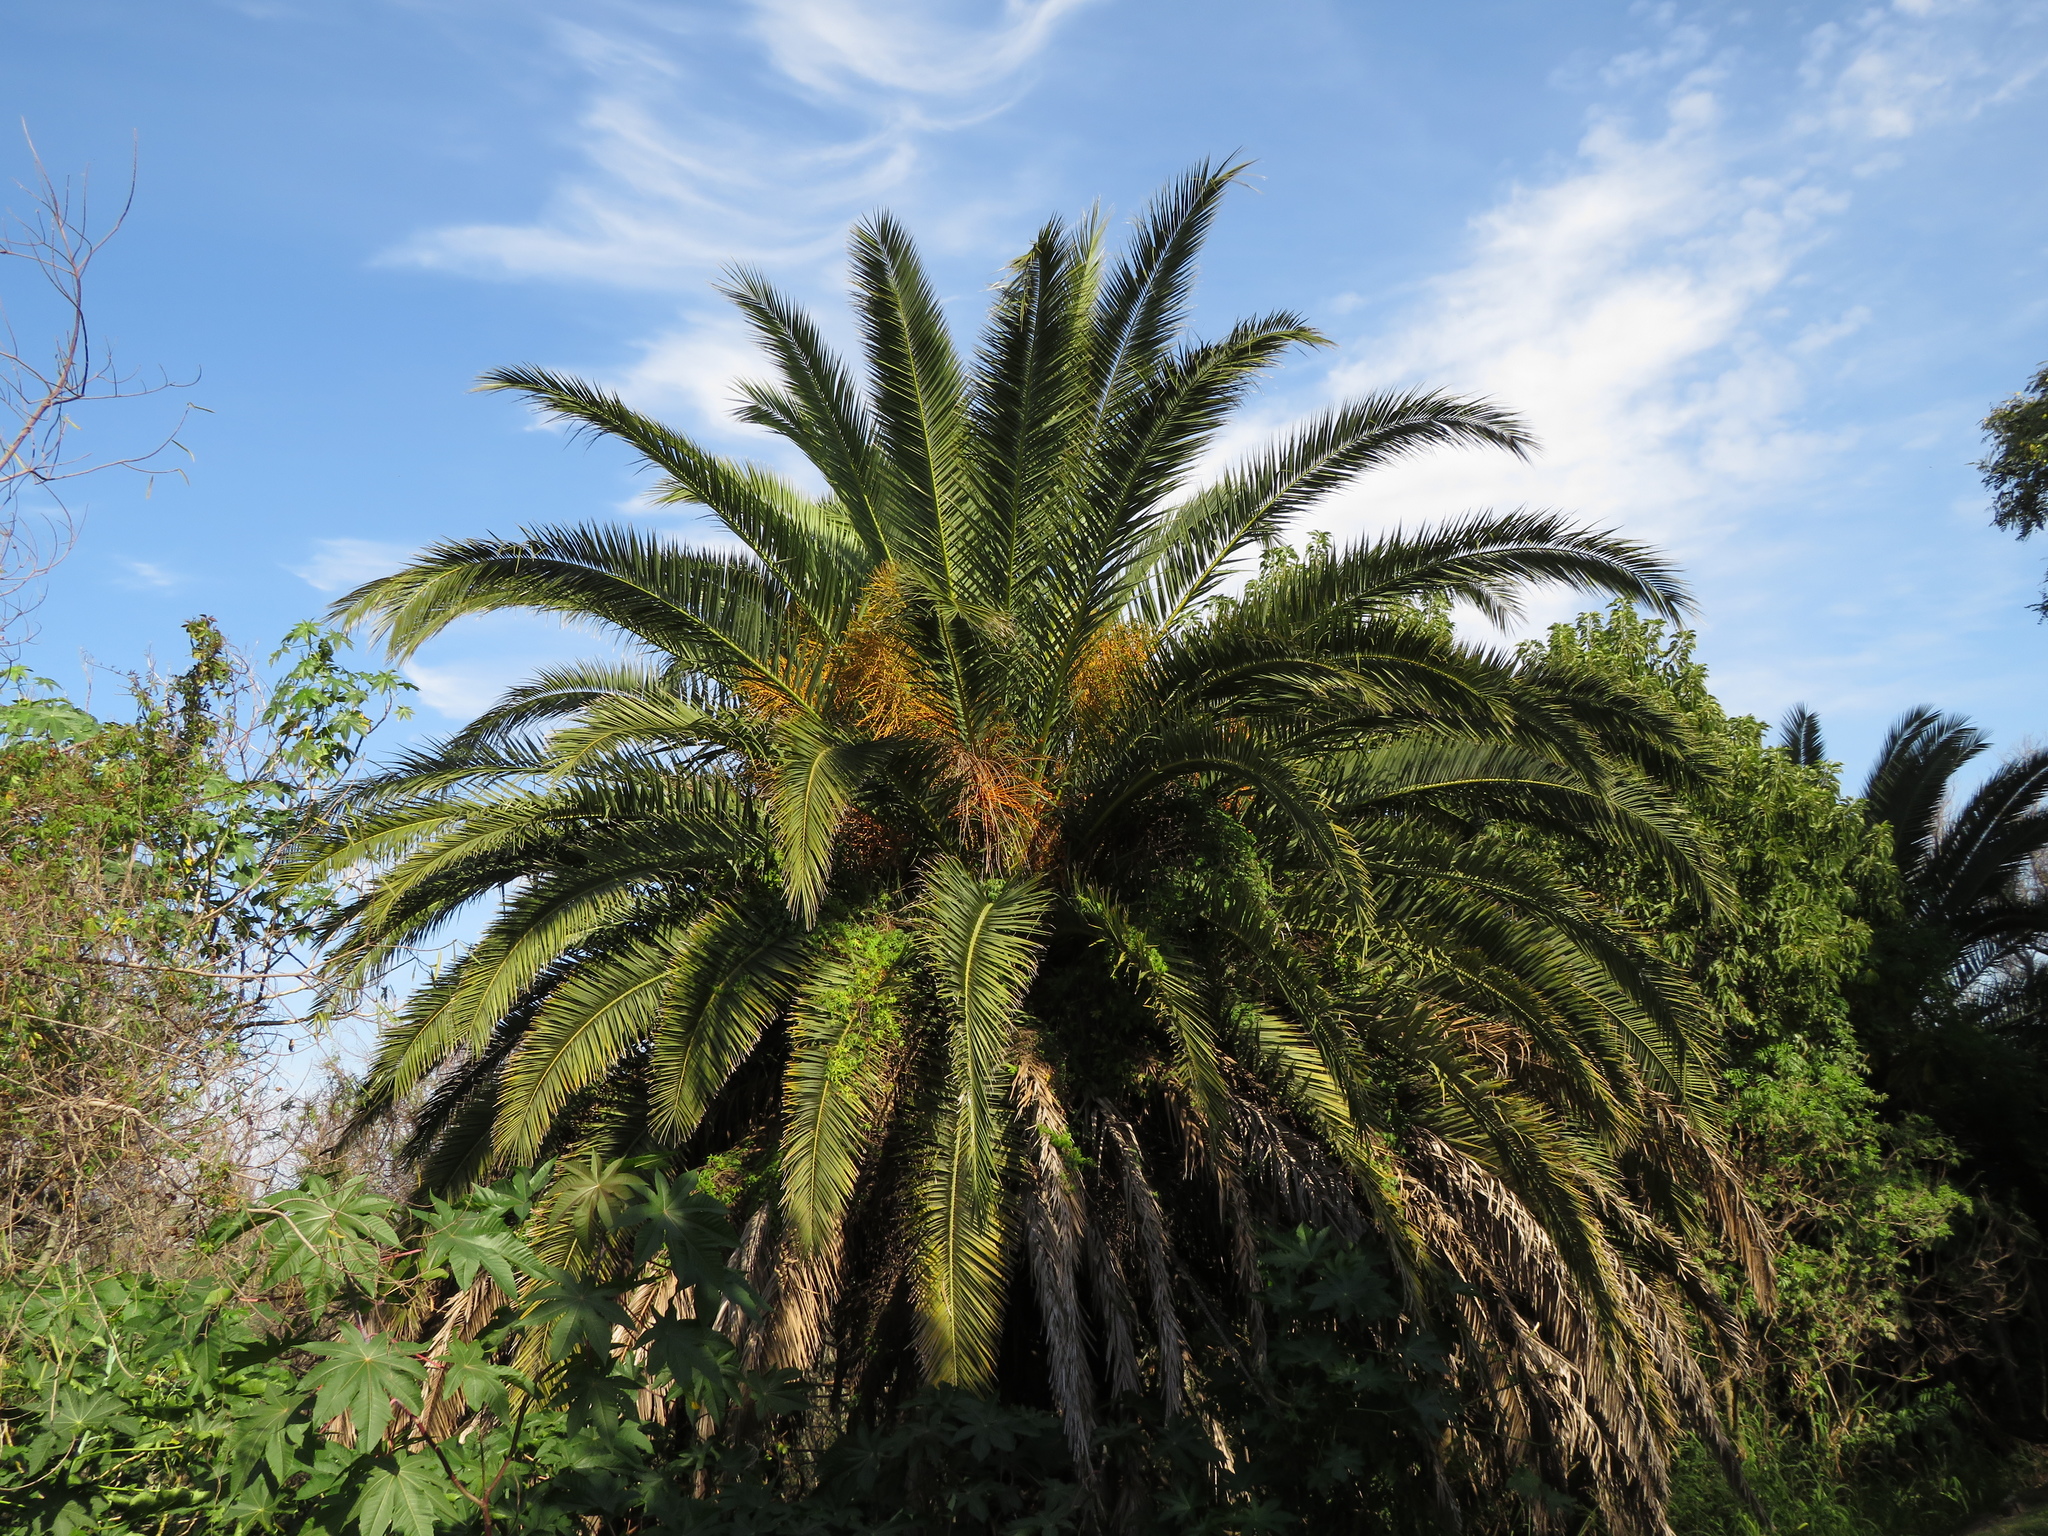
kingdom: Plantae
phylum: Tracheophyta
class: Liliopsida
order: Arecales
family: Arecaceae
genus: Phoenix
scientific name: Phoenix canariensis
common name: Canary island date palm
